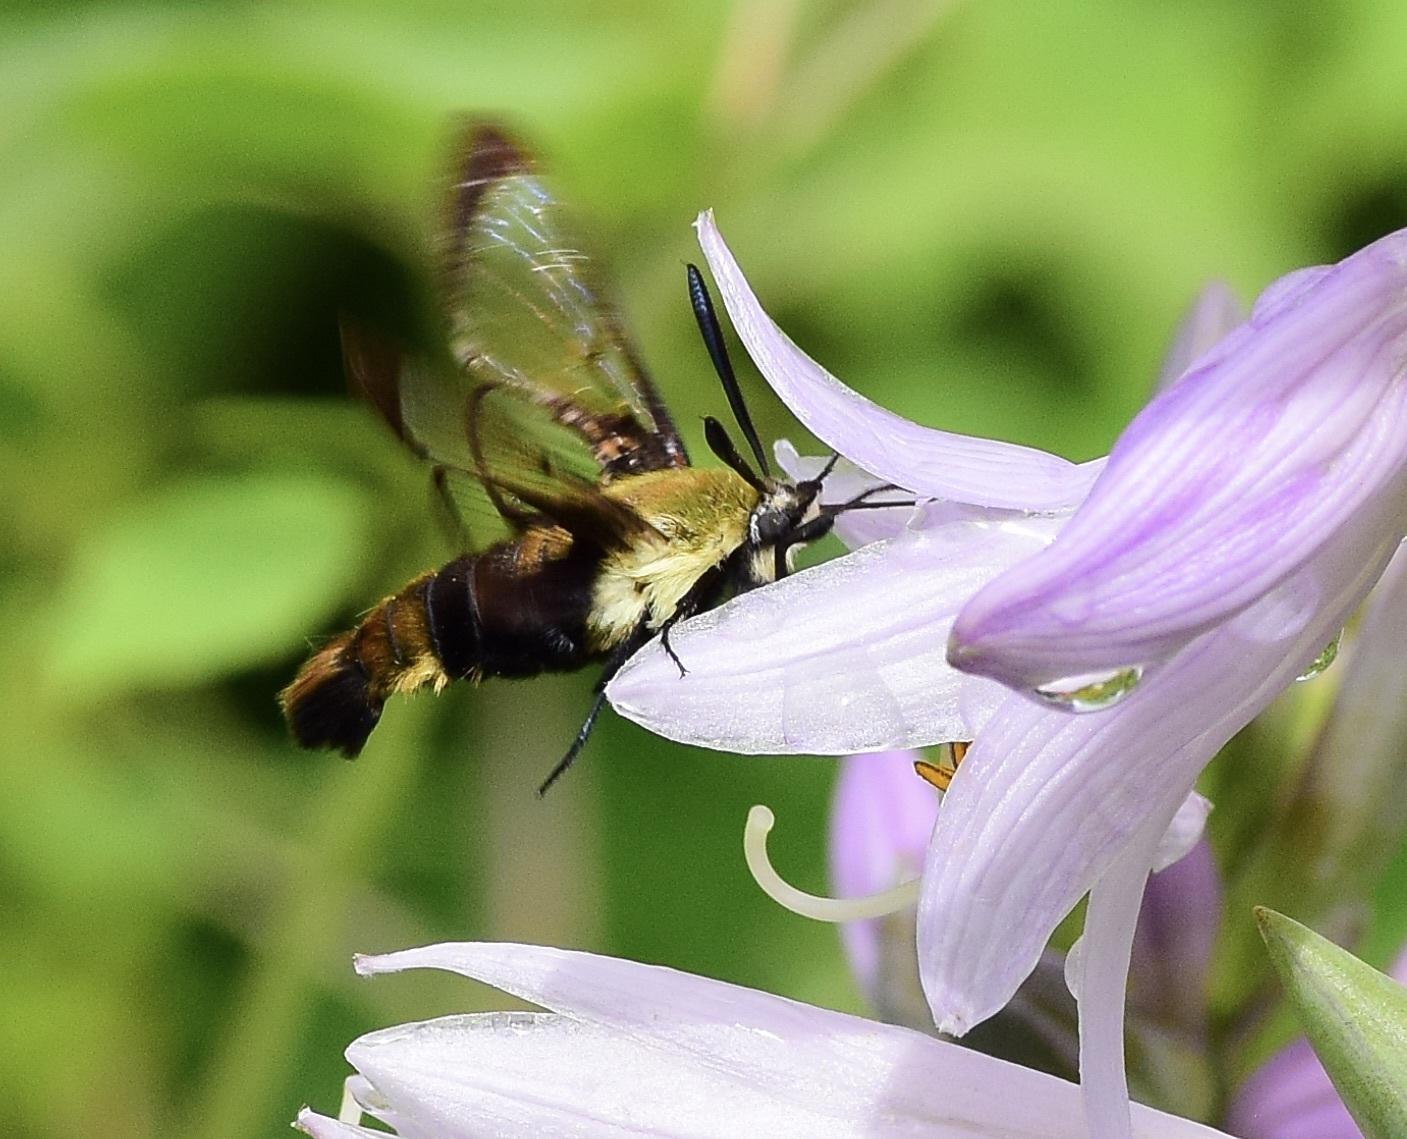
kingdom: Animalia
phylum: Arthropoda
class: Insecta
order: Lepidoptera
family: Sphingidae
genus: Hemaris
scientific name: Hemaris diffinis
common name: Bumblebee moth
